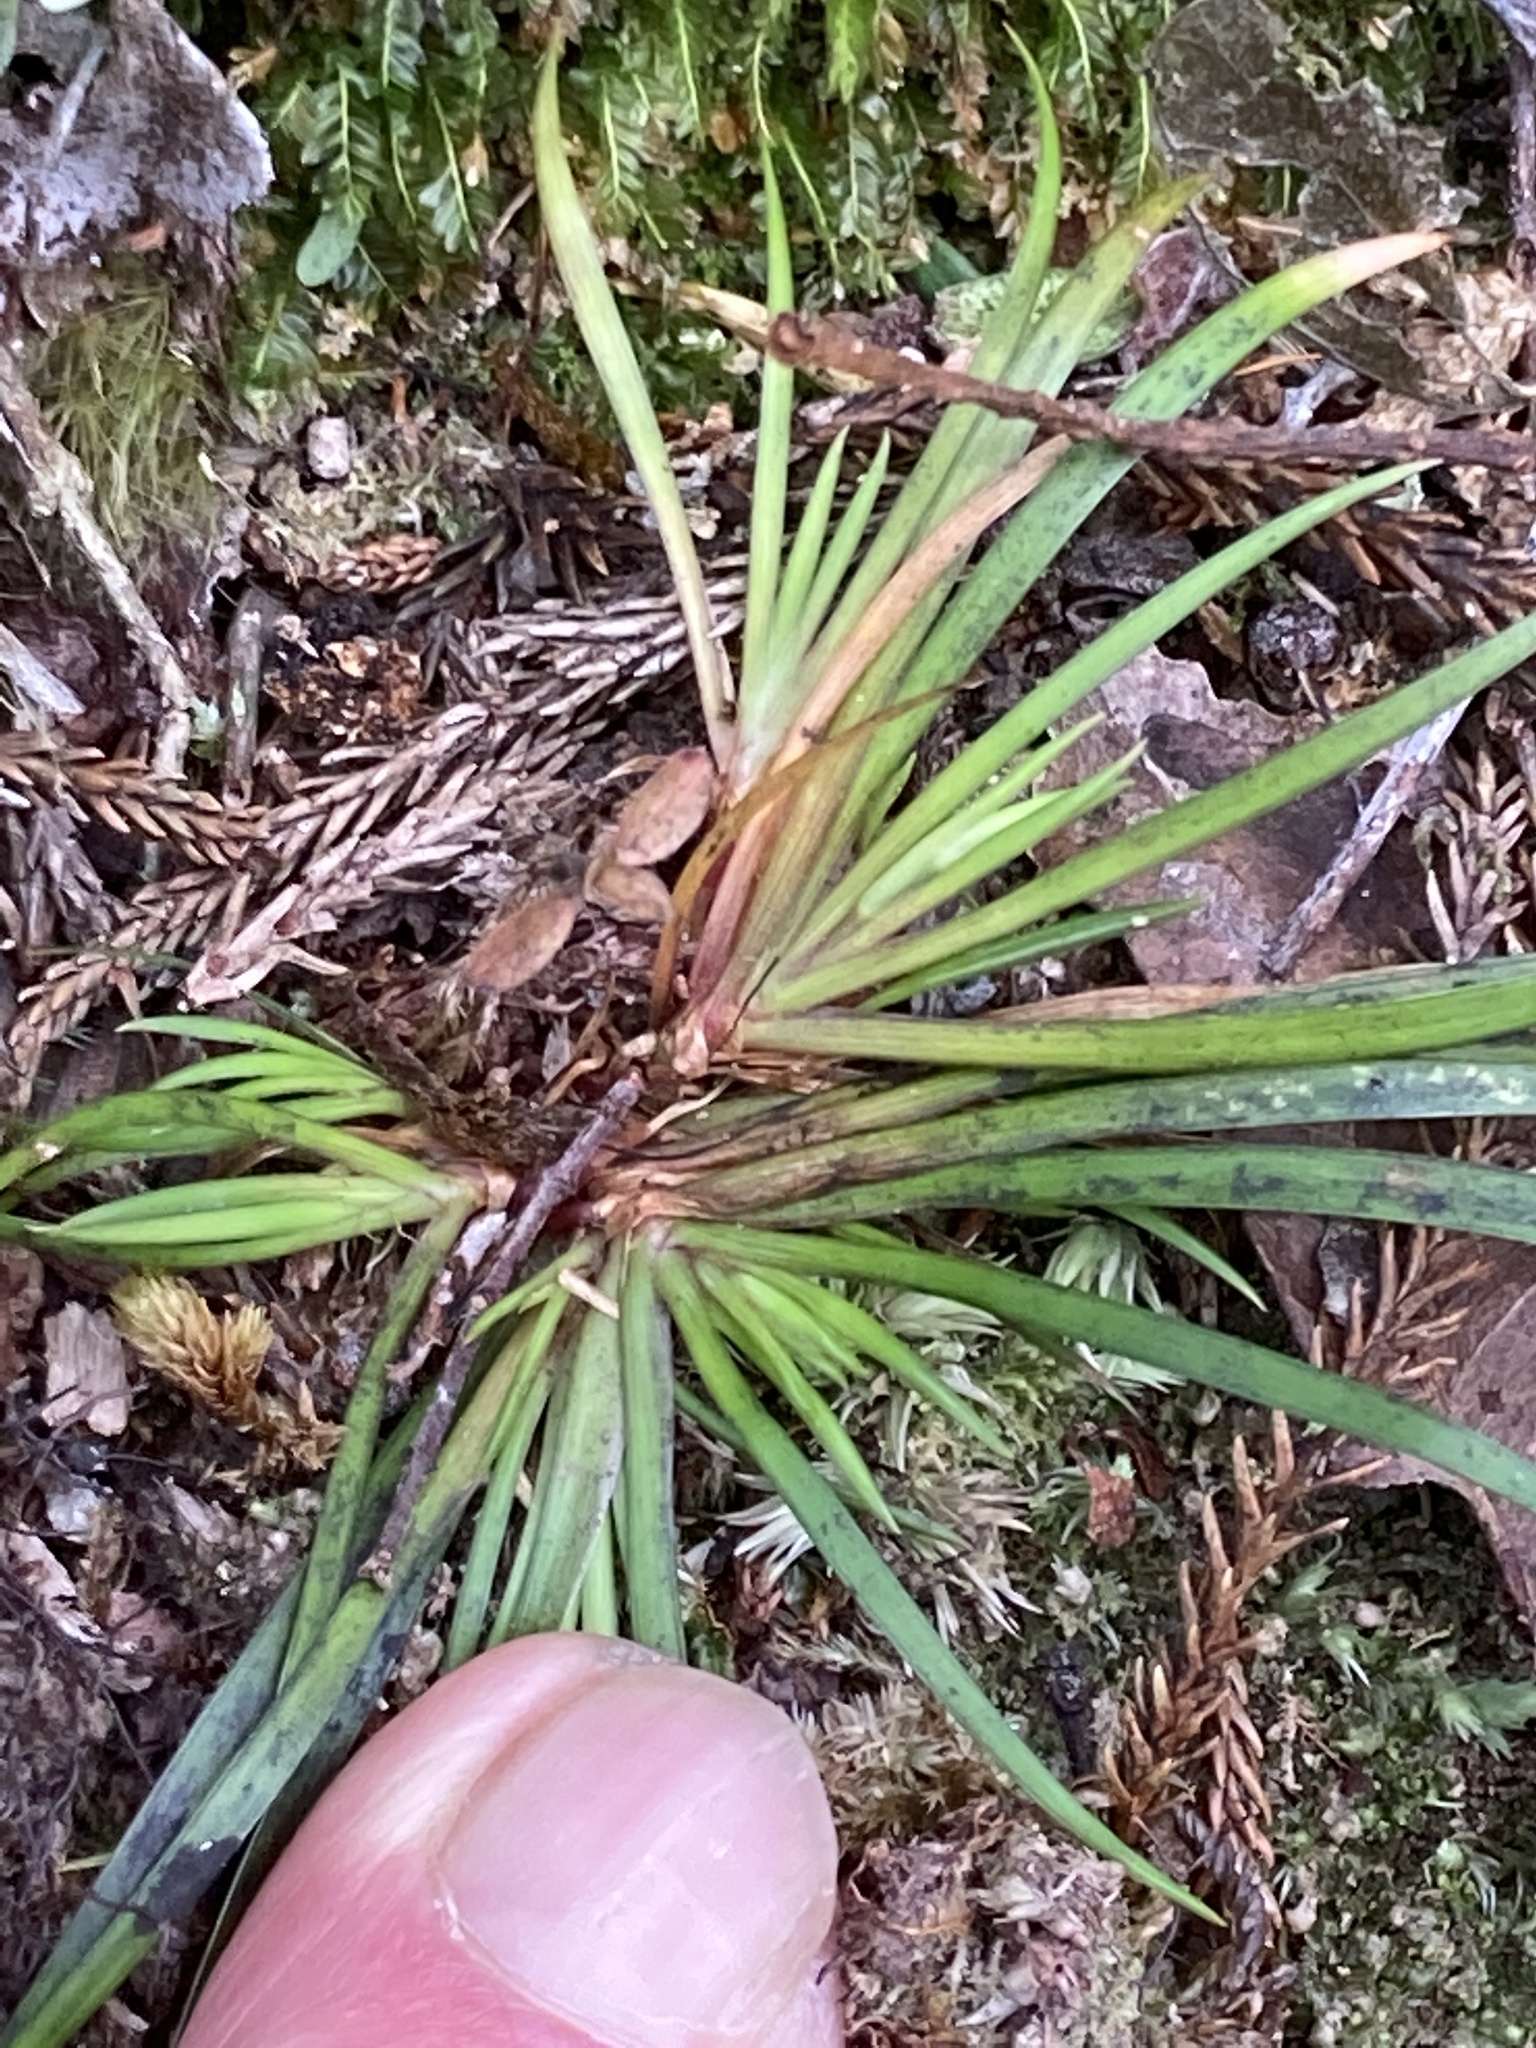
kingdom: Plantae
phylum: Tracheophyta
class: Liliopsida
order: Asparagales
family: Iridaceae
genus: Libertia
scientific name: Libertia micrantha
